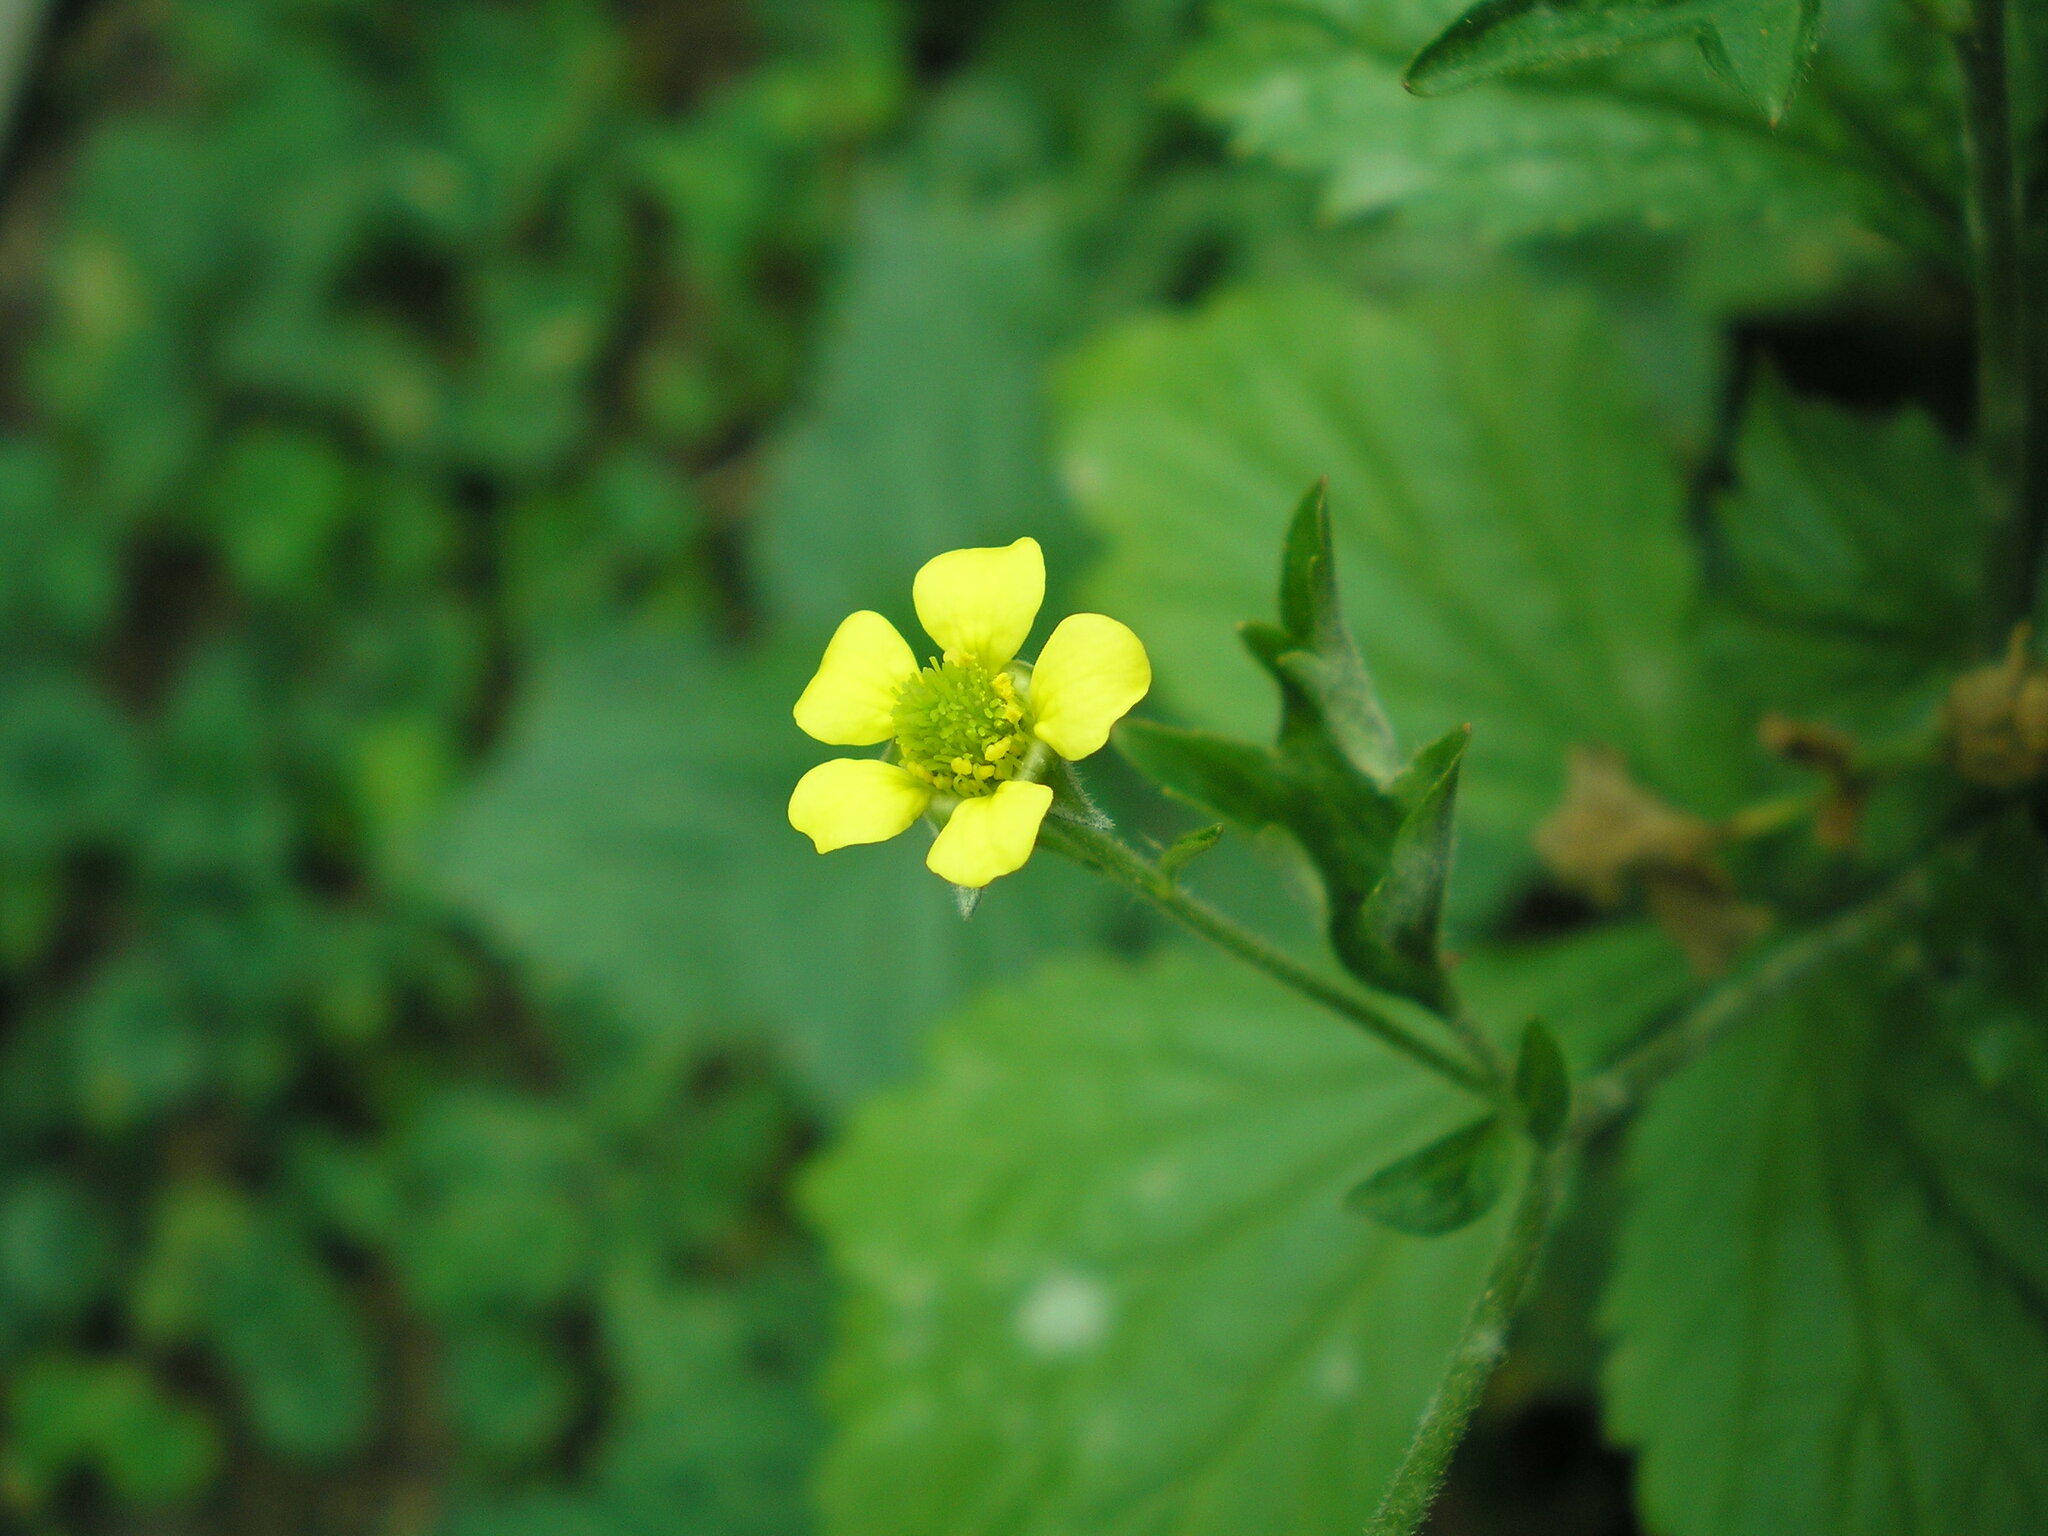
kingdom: Plantae
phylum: Tracheophyta
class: Magnoliopsida
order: Rosales
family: Rosaceae
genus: Geum
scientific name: Geum urbanum
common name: Wood avens
